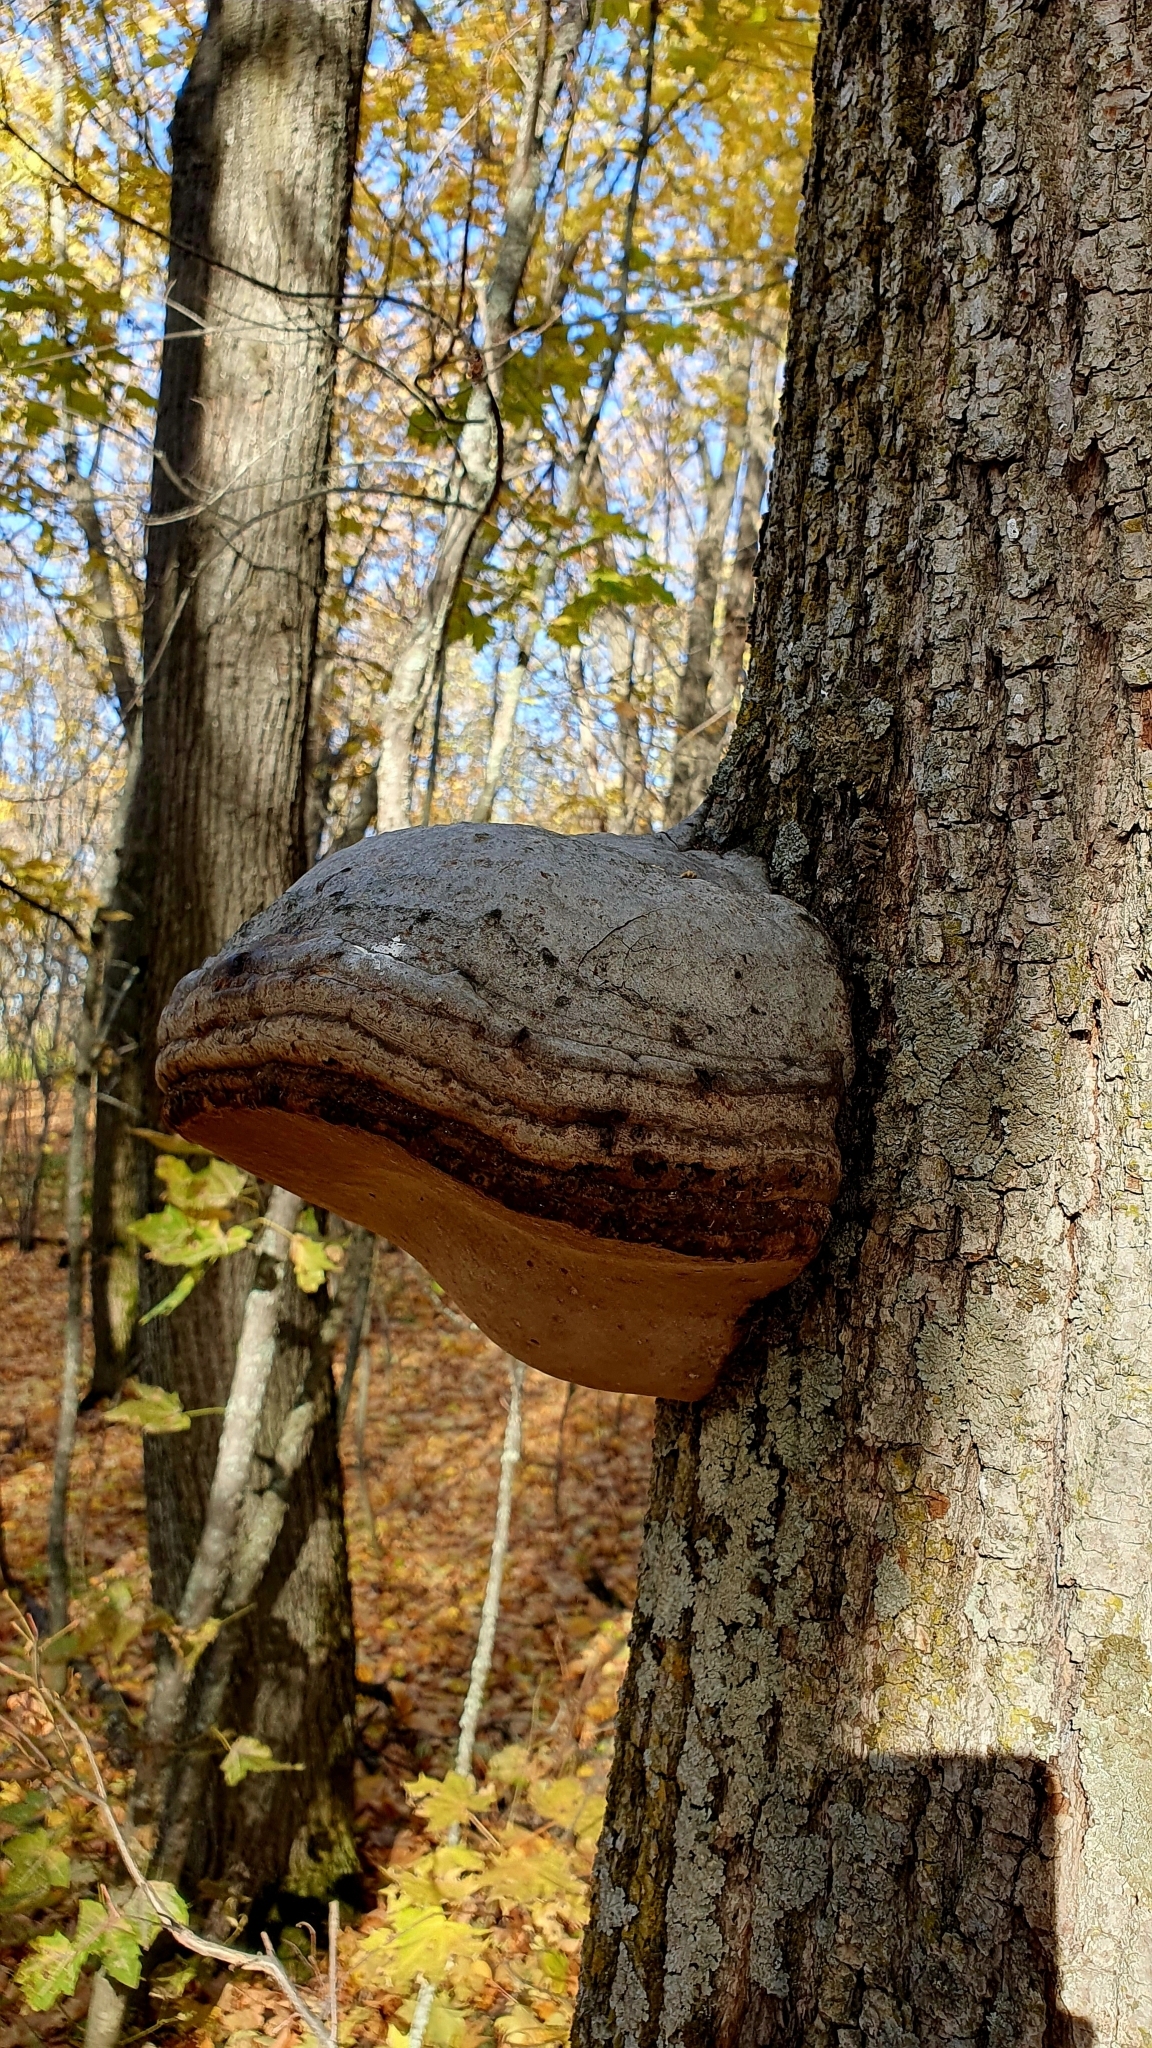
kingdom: Fungi
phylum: Basidiomycota
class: Agaricomycetes
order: Polyporales
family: Polyporaceae
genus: Fomes
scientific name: Fomes fomentarius
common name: Hoof fungus
